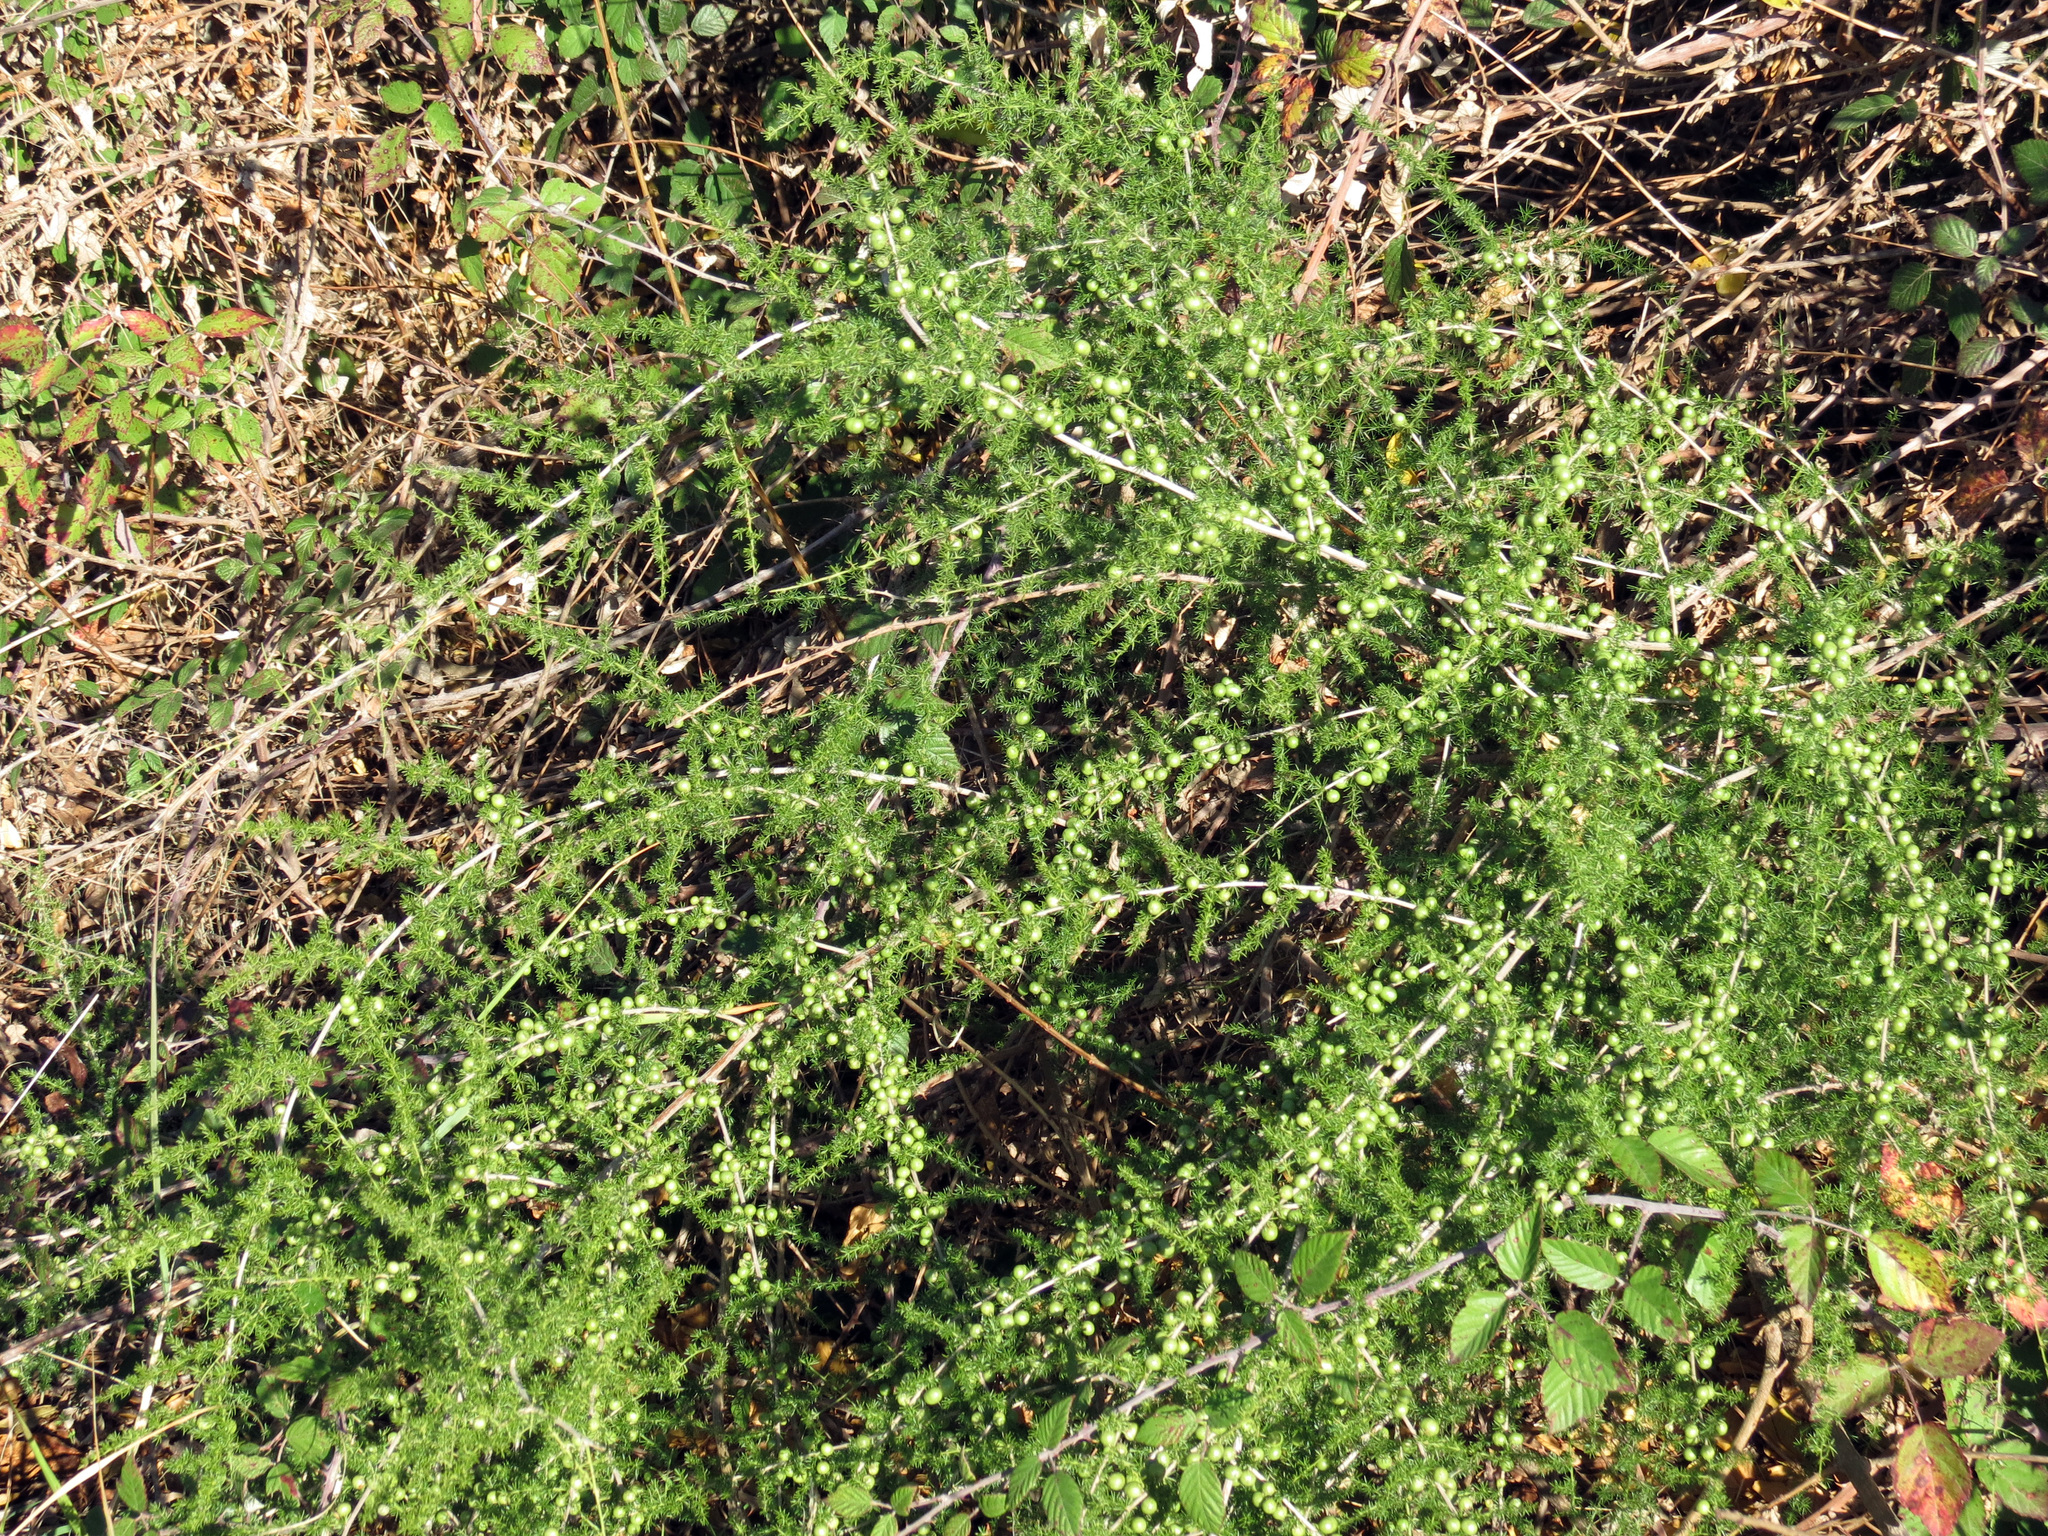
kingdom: Plantae
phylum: Tracheophyta
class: Liliopsida
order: Asparagales
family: Asparagaceae
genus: Asparagus
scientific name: Asparagus acutifolius
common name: Wild asparagus
